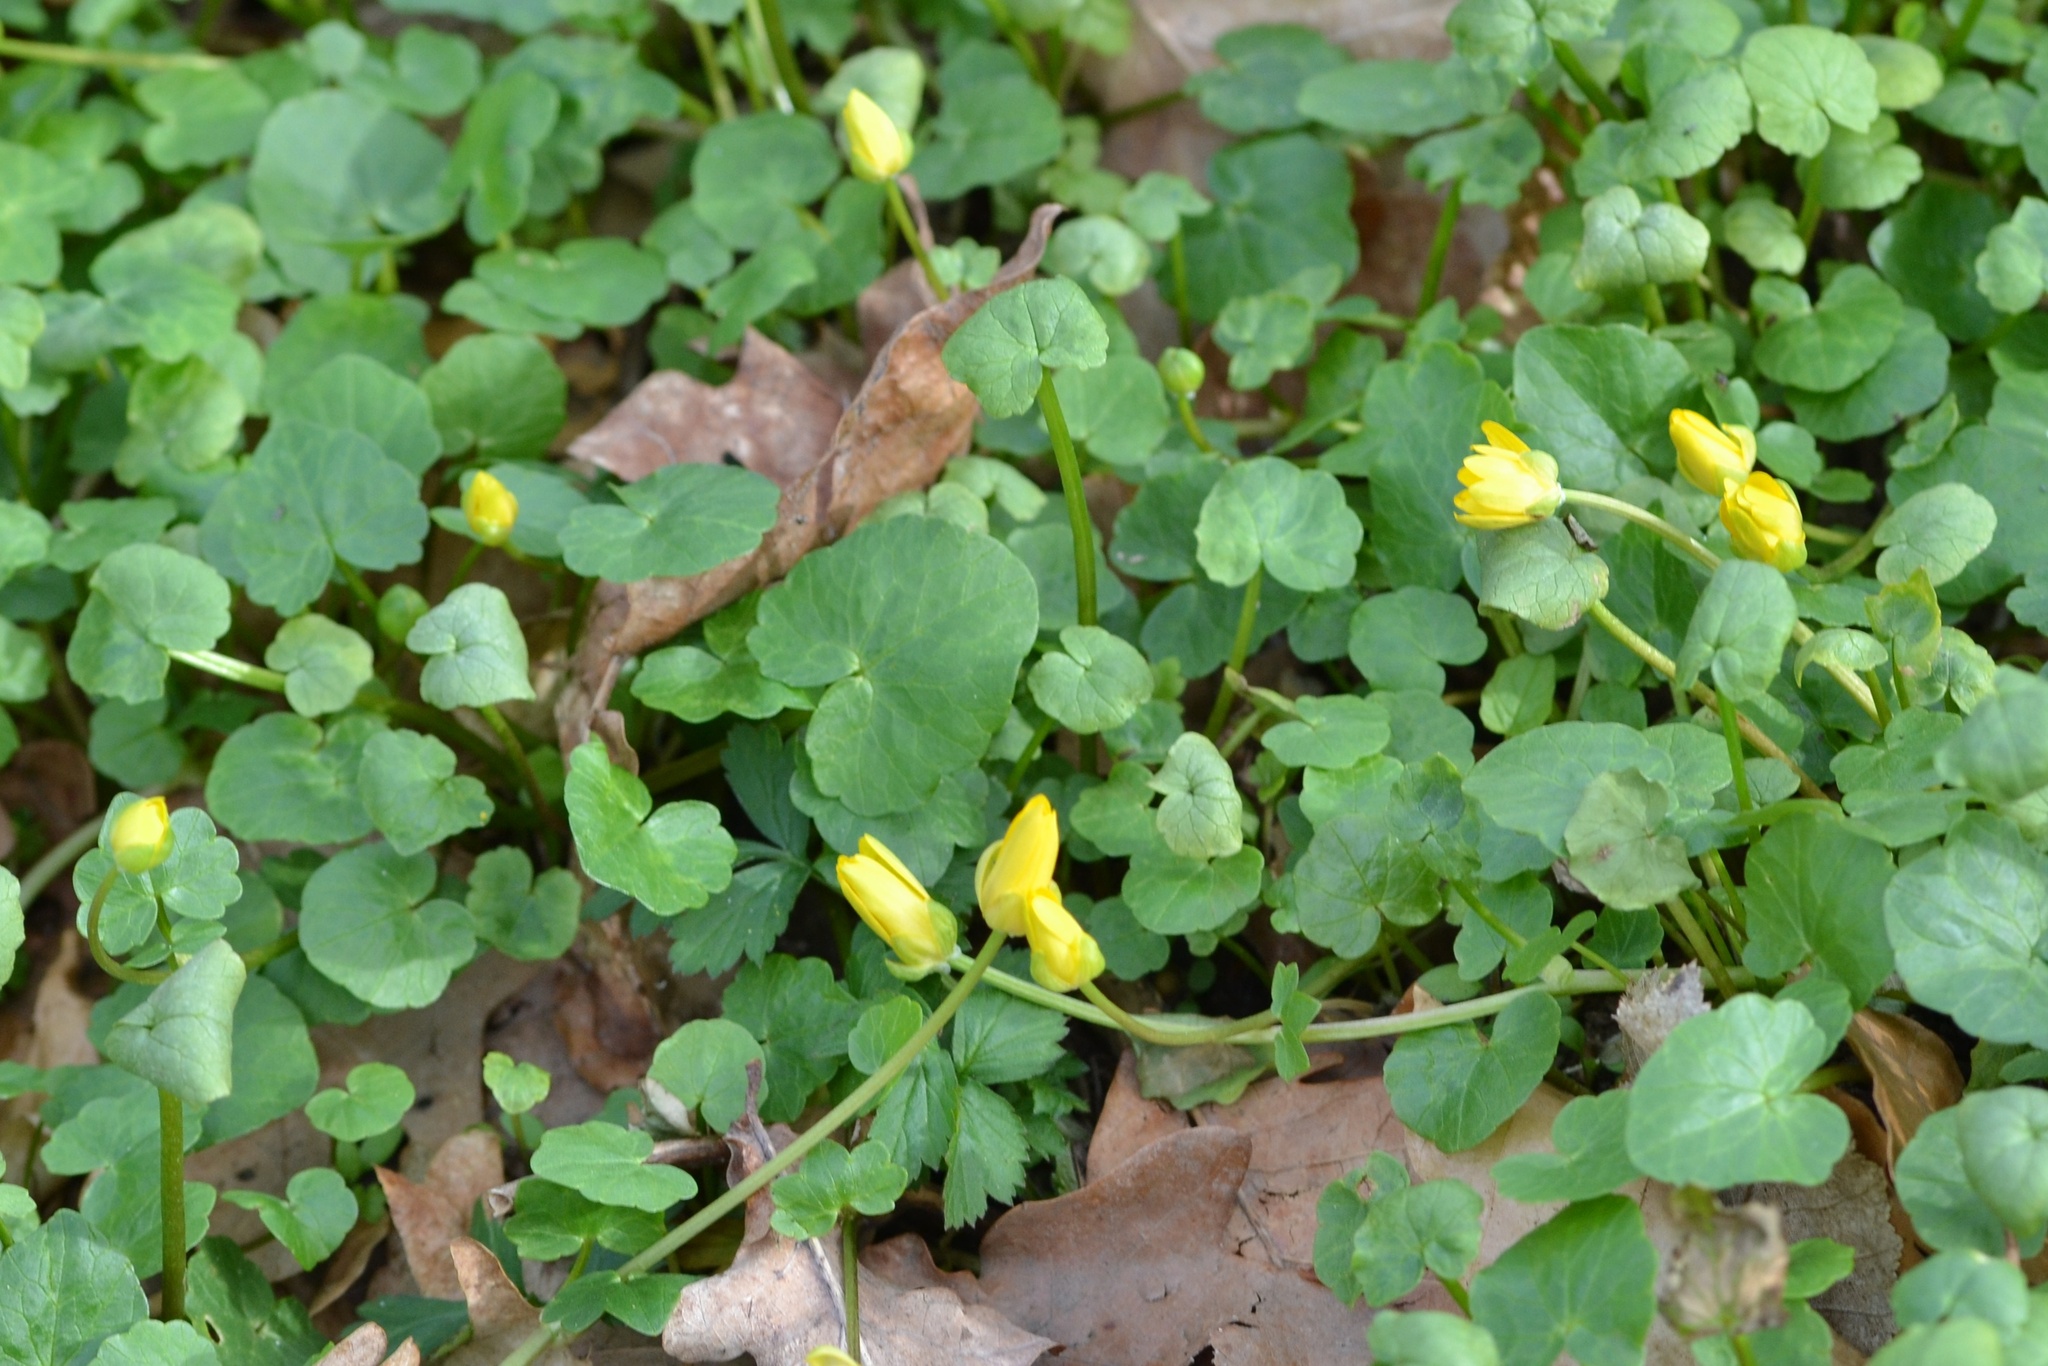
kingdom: Plantae
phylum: Tracheophyta
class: Magnoliopsida
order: Ranunculales
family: Ranunculaceae
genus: Ficaria
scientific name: Ficaria verna
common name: Lesser celandine
